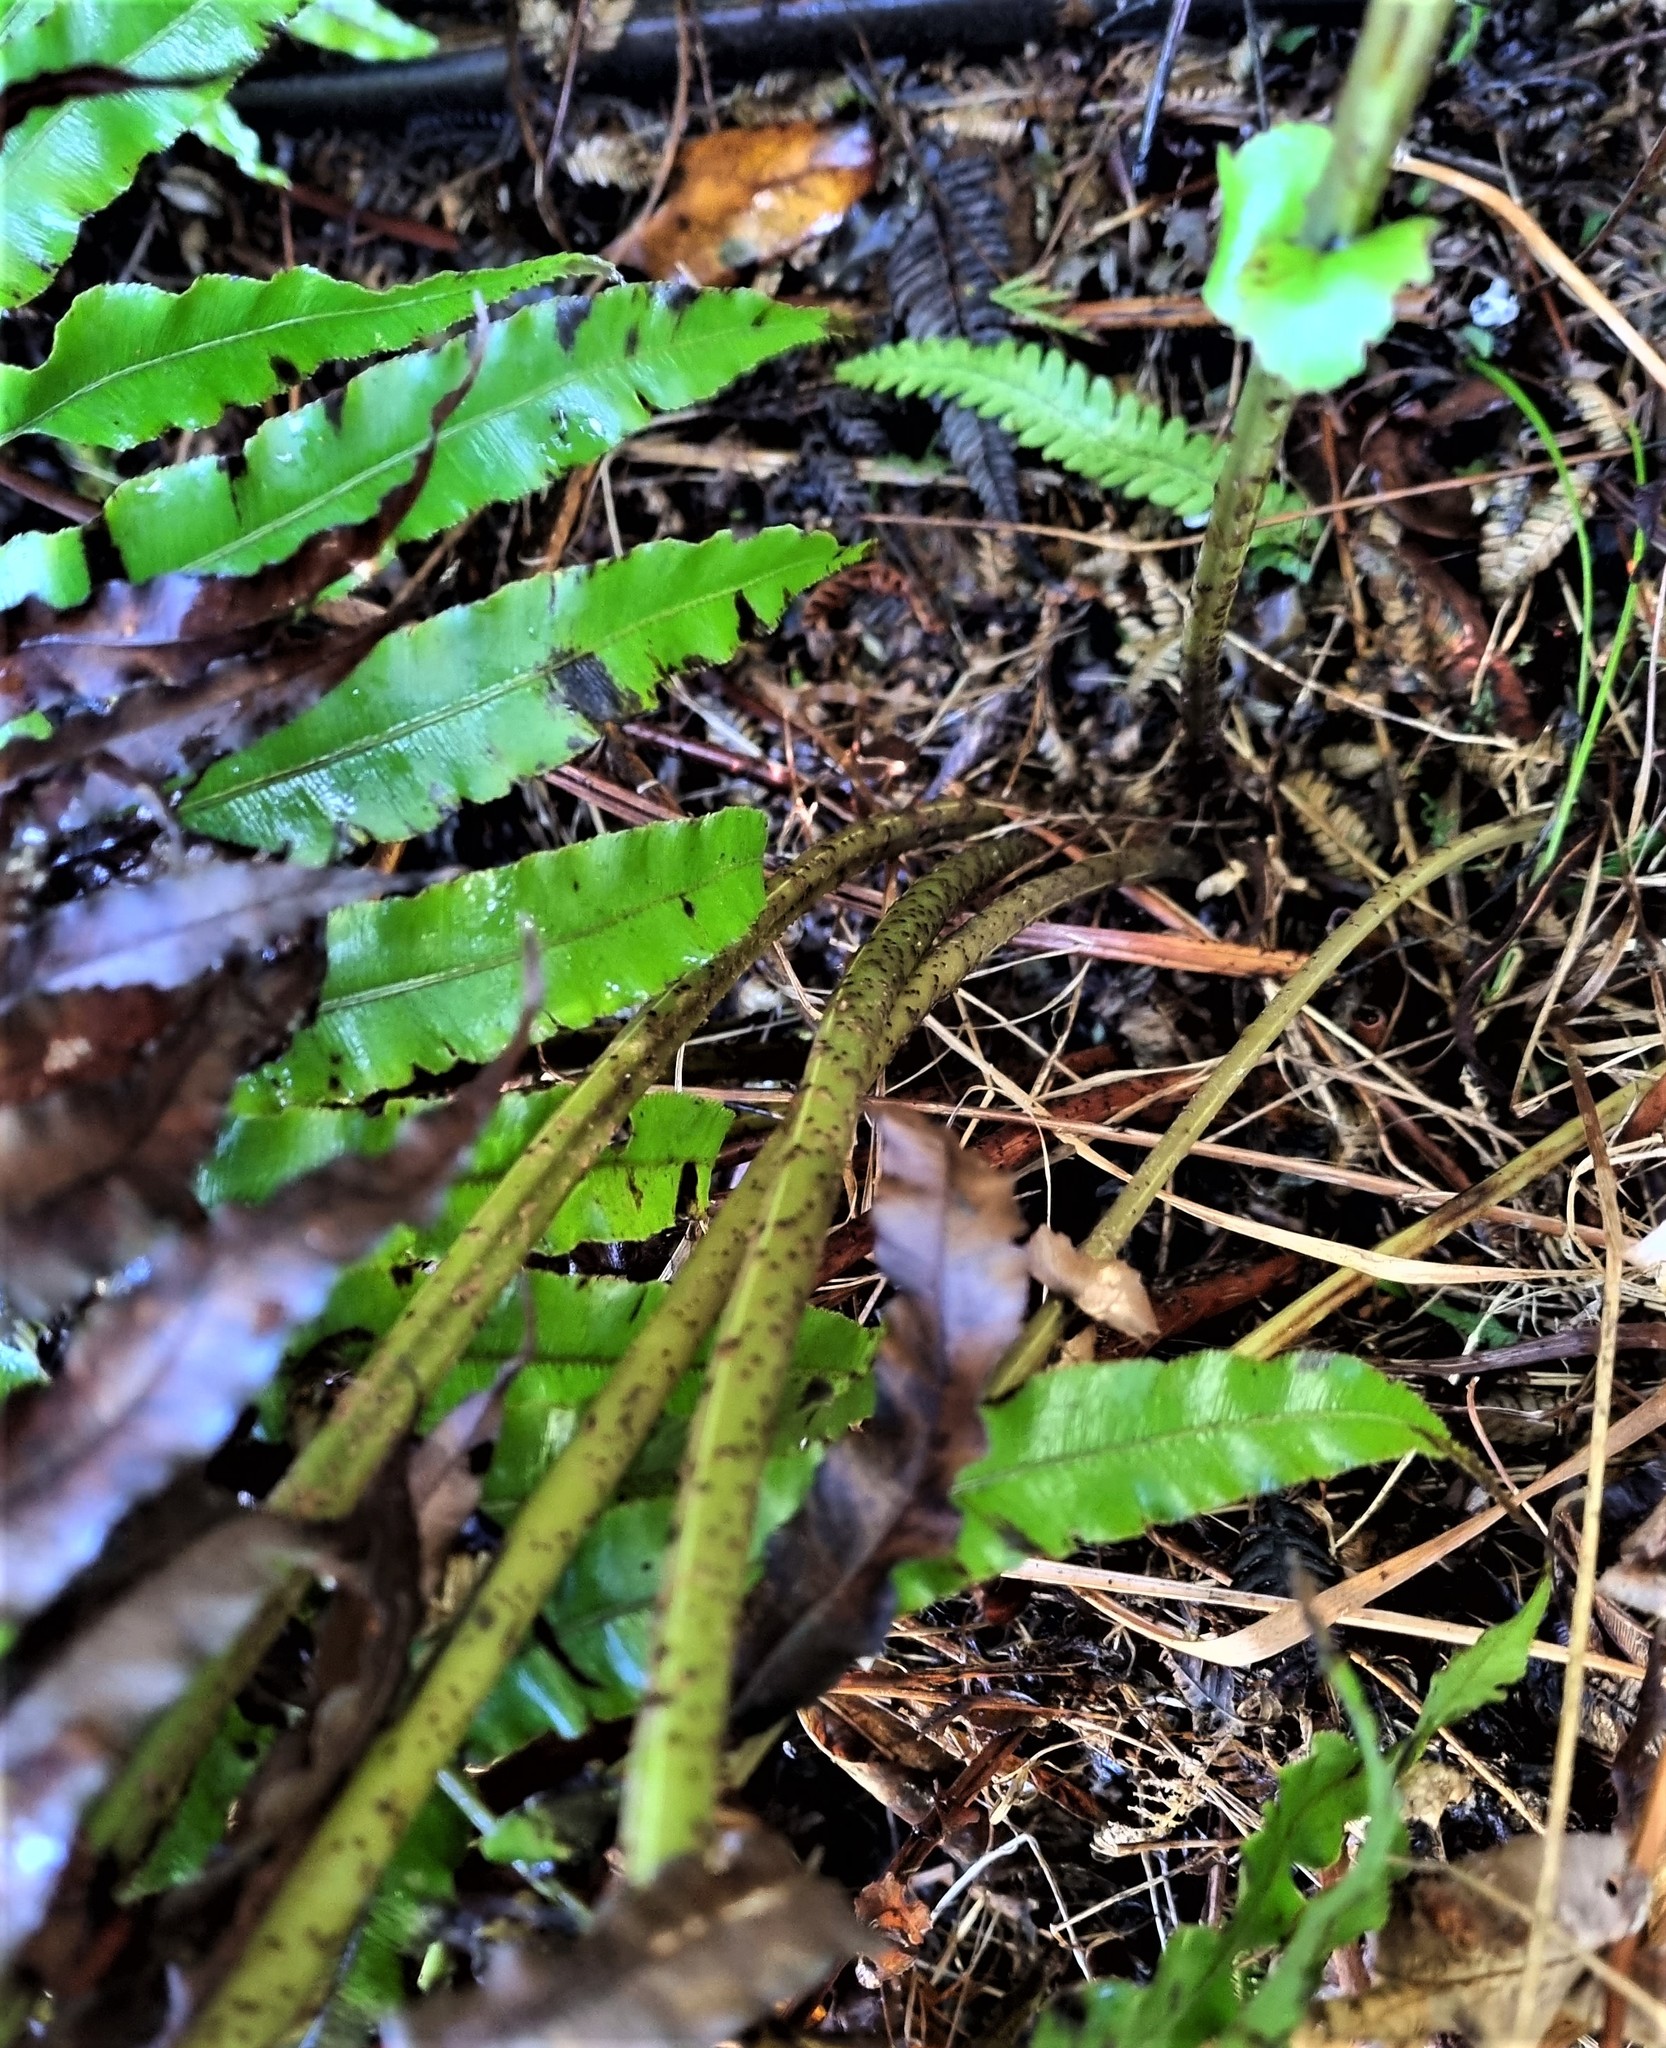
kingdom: Plantae
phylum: Tracheophyta
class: Polypodiopsida
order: Polypodiales
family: Blechnaceae
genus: Parablechnum
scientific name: Parablechnum novae-zelandiae
